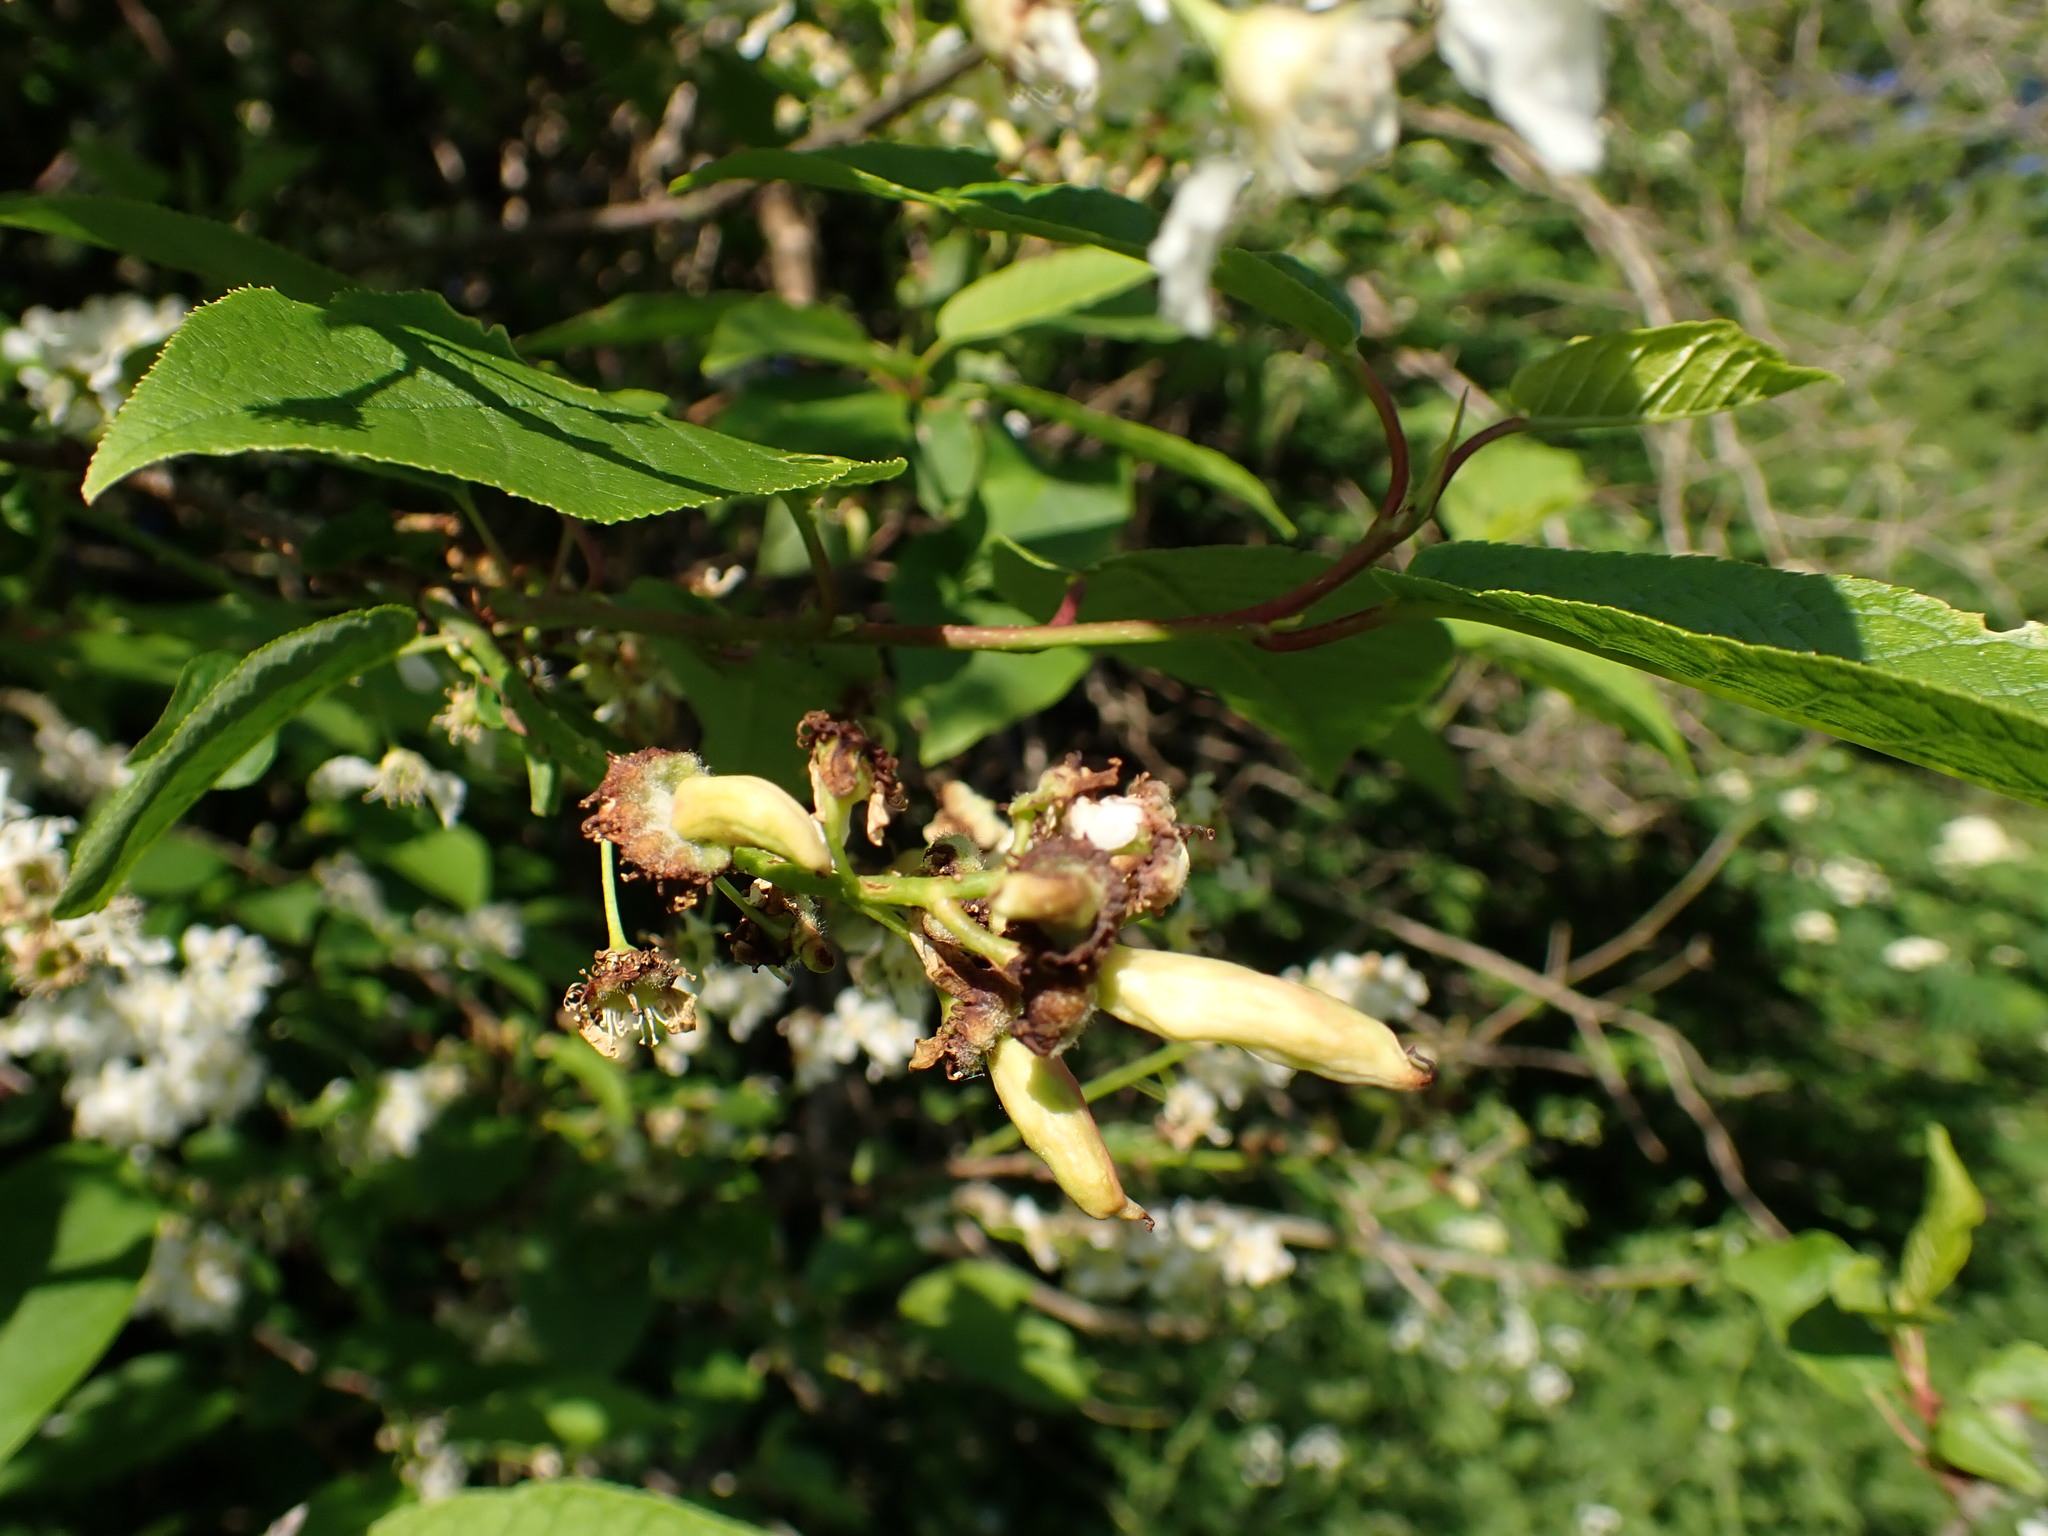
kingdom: Fungi
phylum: Ascomycota
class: Taphrinomycetes
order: Taphrinales
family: Taphrinaceae
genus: Taphrina
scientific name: Taphrina padi
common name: Bird cherry pocket
